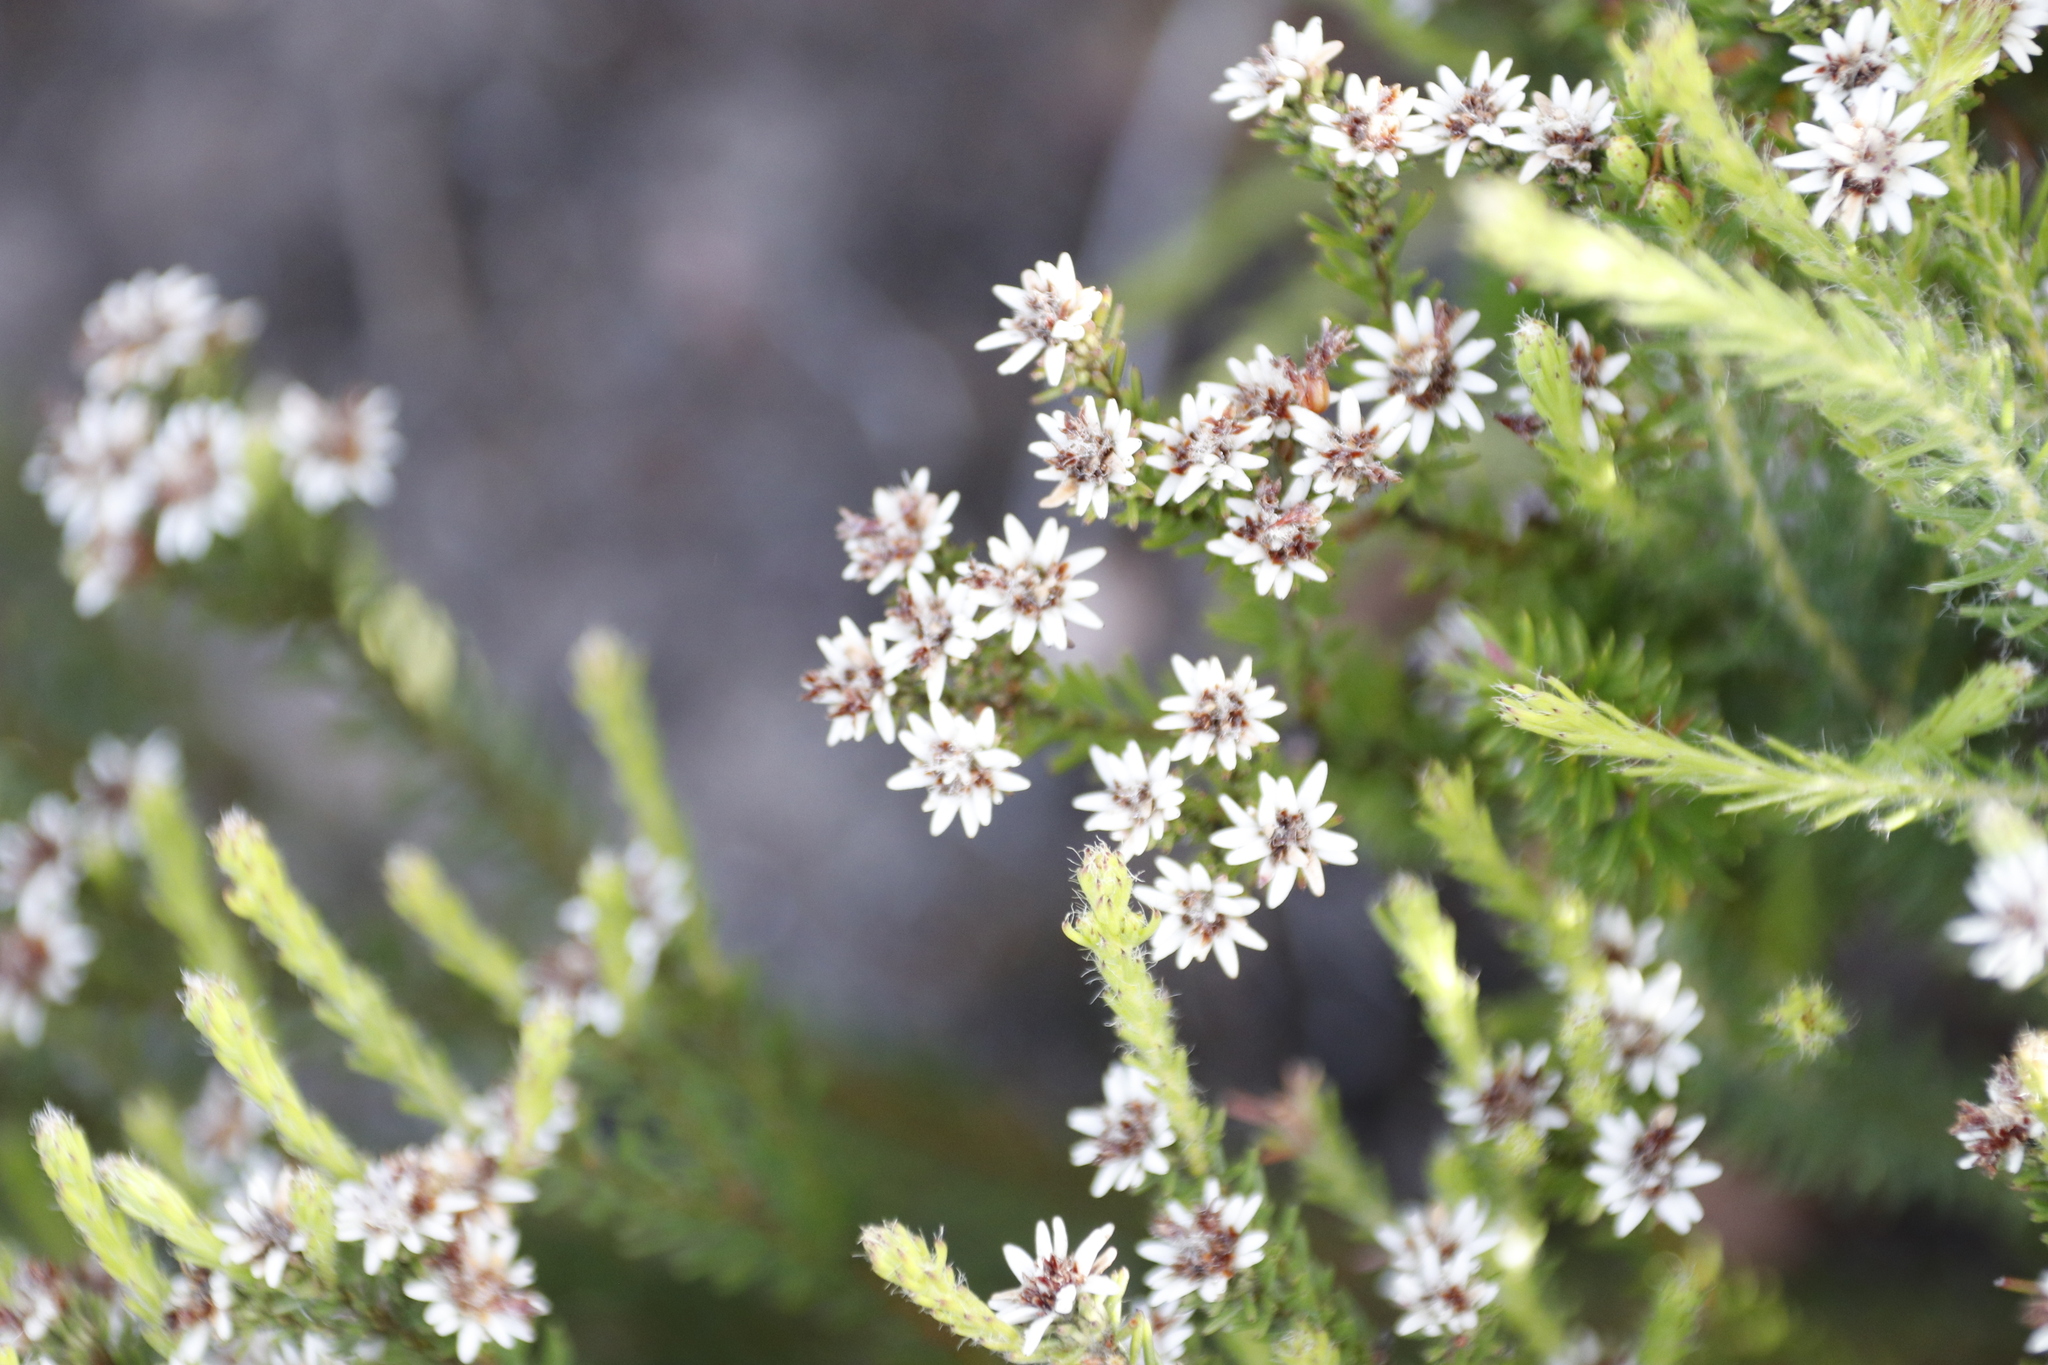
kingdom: Plantae
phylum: Tracheophyta
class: Magnoliopsida
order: Bruniales
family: Bruniaceae
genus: Staavia
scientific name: Staavia radiata
